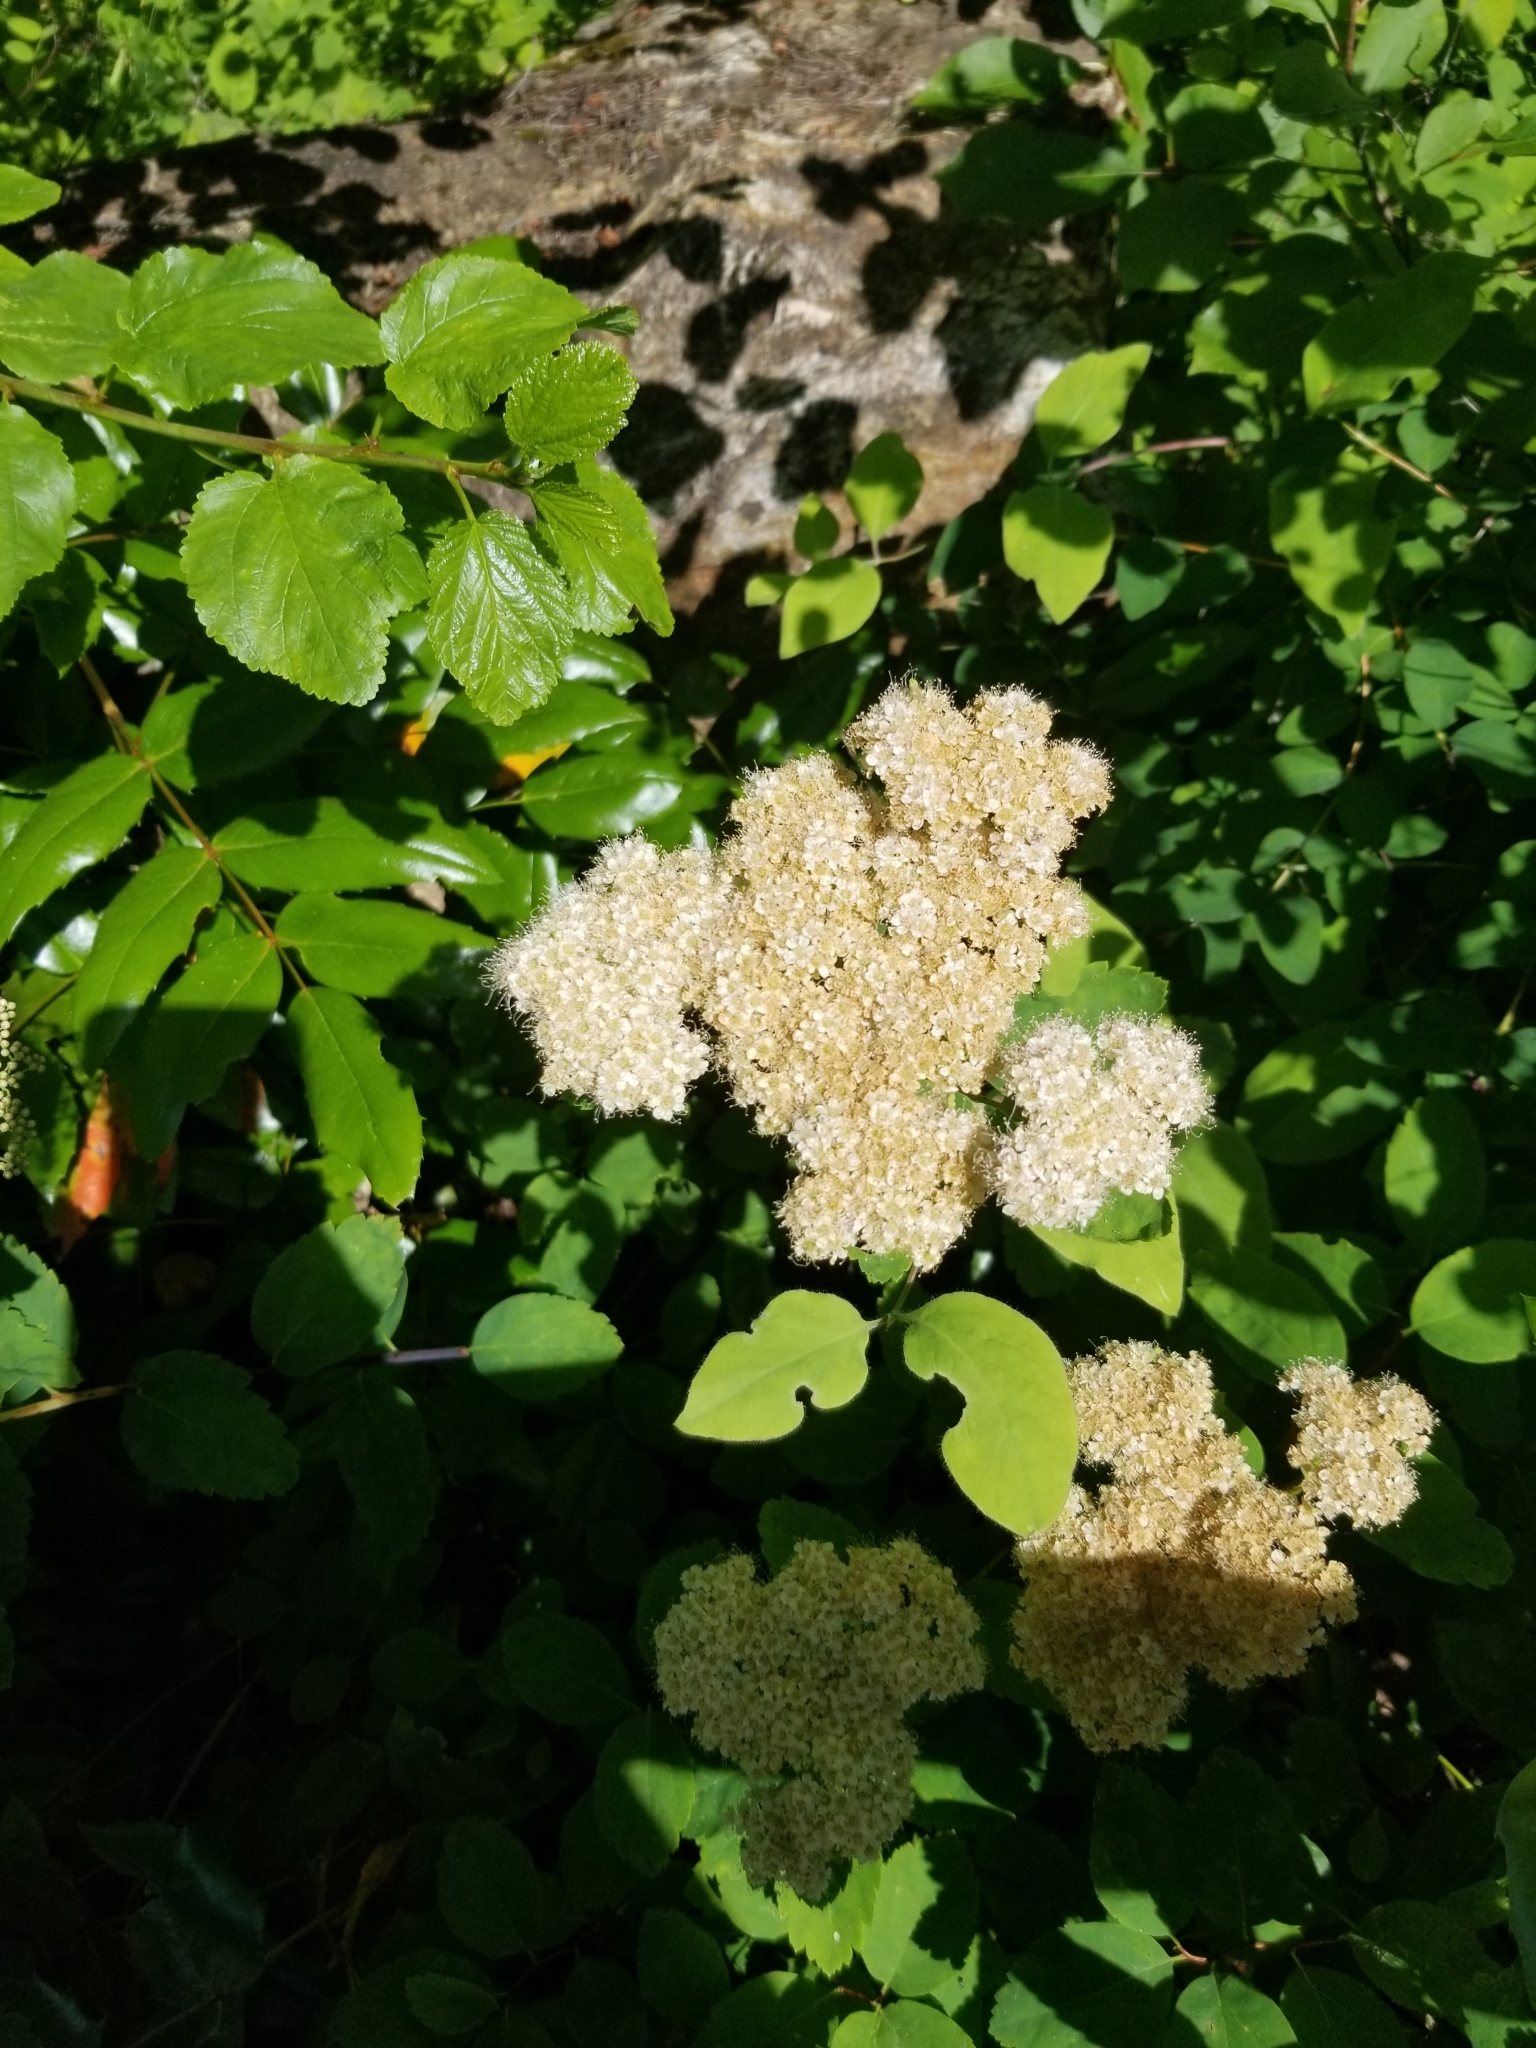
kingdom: Plantae
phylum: Tracheophyta
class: Magnoliopsida
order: Rosales
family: Rosaceae
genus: Spiraea
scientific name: Spiraea lucida
